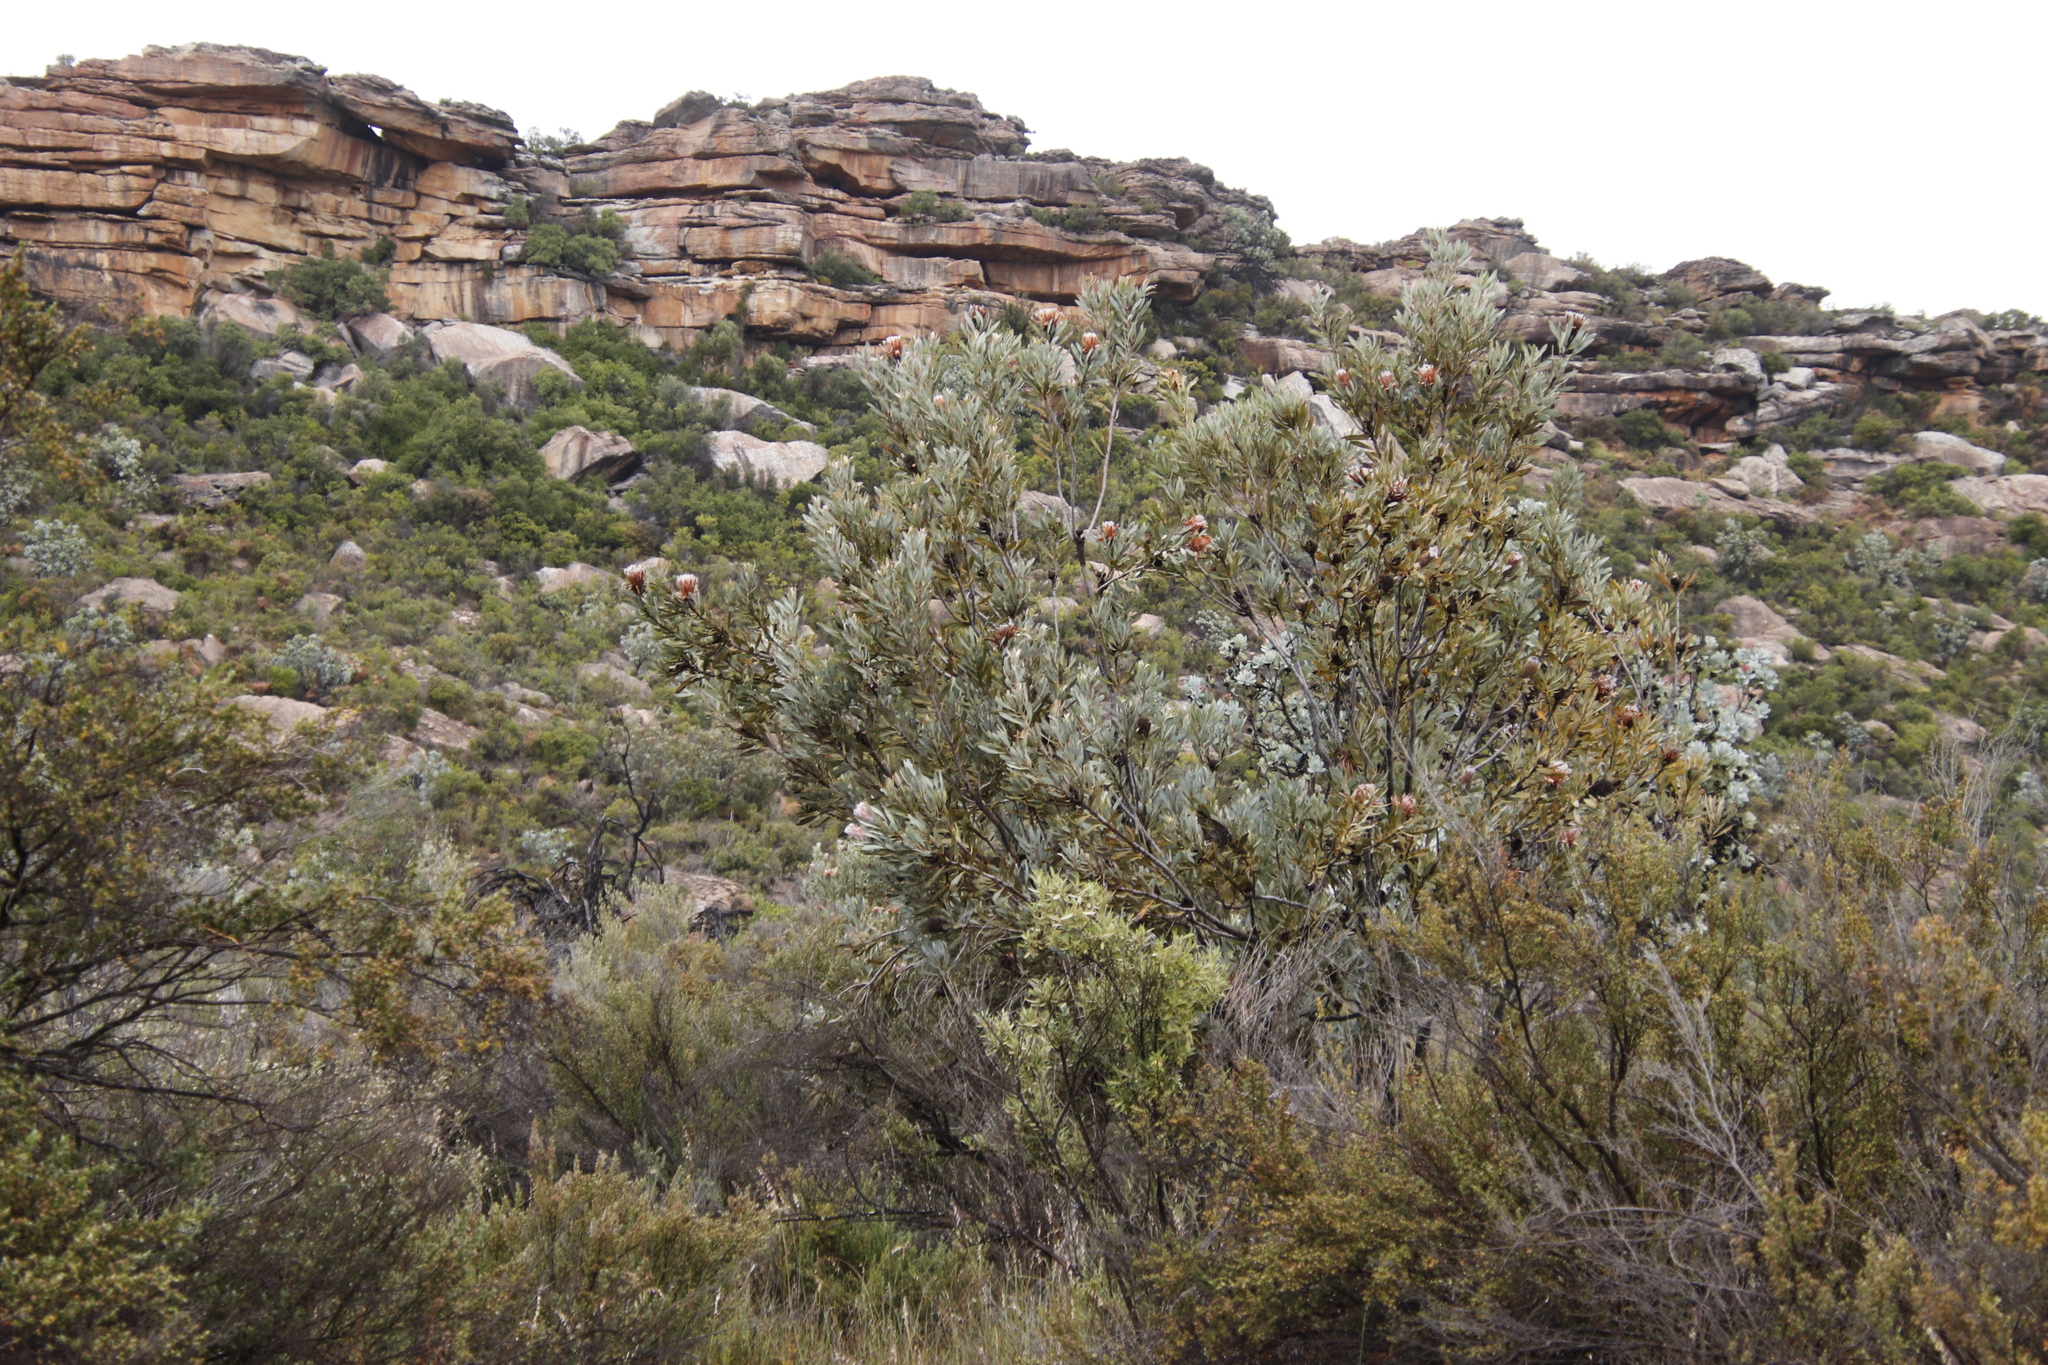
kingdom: Plantae
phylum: Tracheophyta
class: Magnoliopsida
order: Proteales
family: Proteaceae
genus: Protea
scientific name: Protea laurifolia
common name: Grey-leaf sugarbsh
